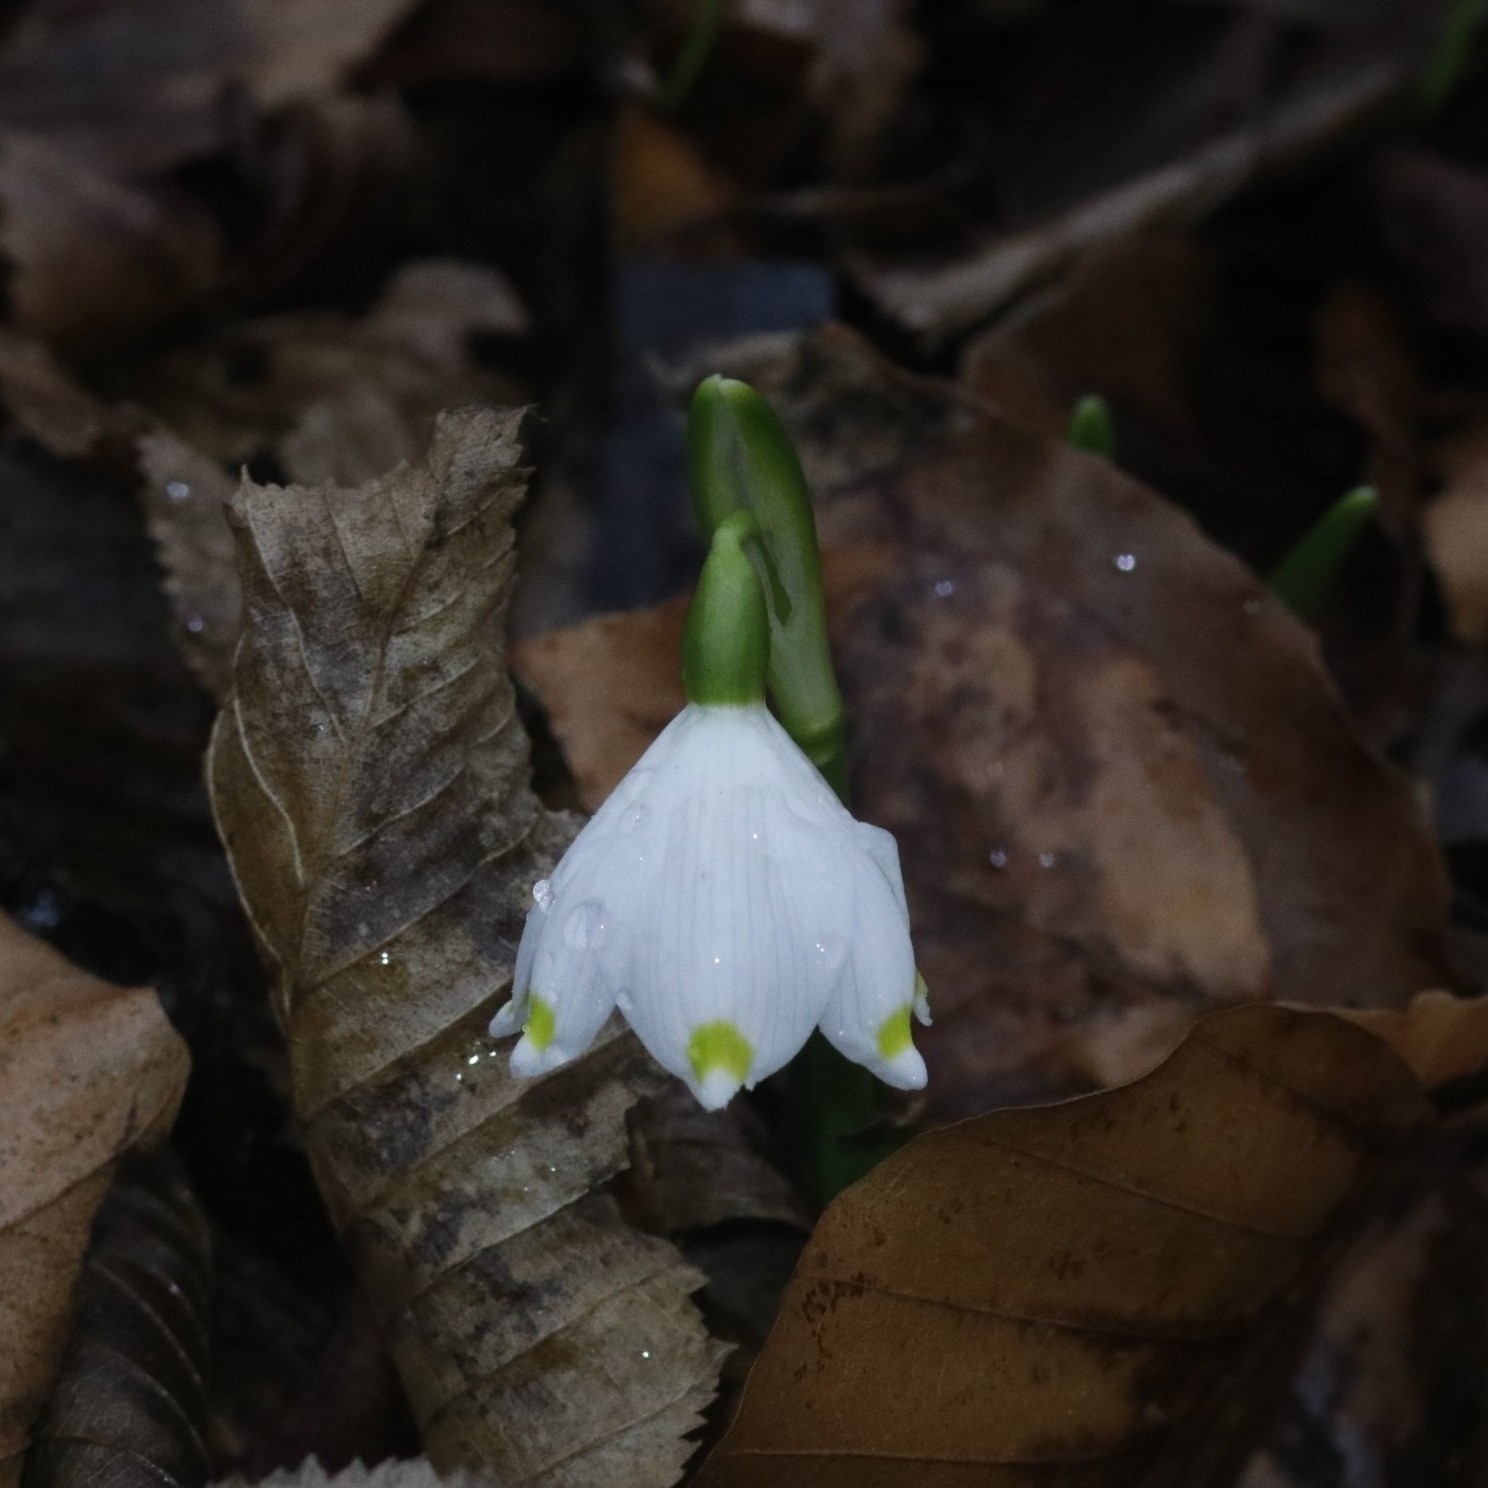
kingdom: Plantae
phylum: Tracheophyta
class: Liliopsida
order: Asparagales
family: Amaryllidaceae
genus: Leucojum
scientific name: Leucojum vernum
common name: Spring snowflake
